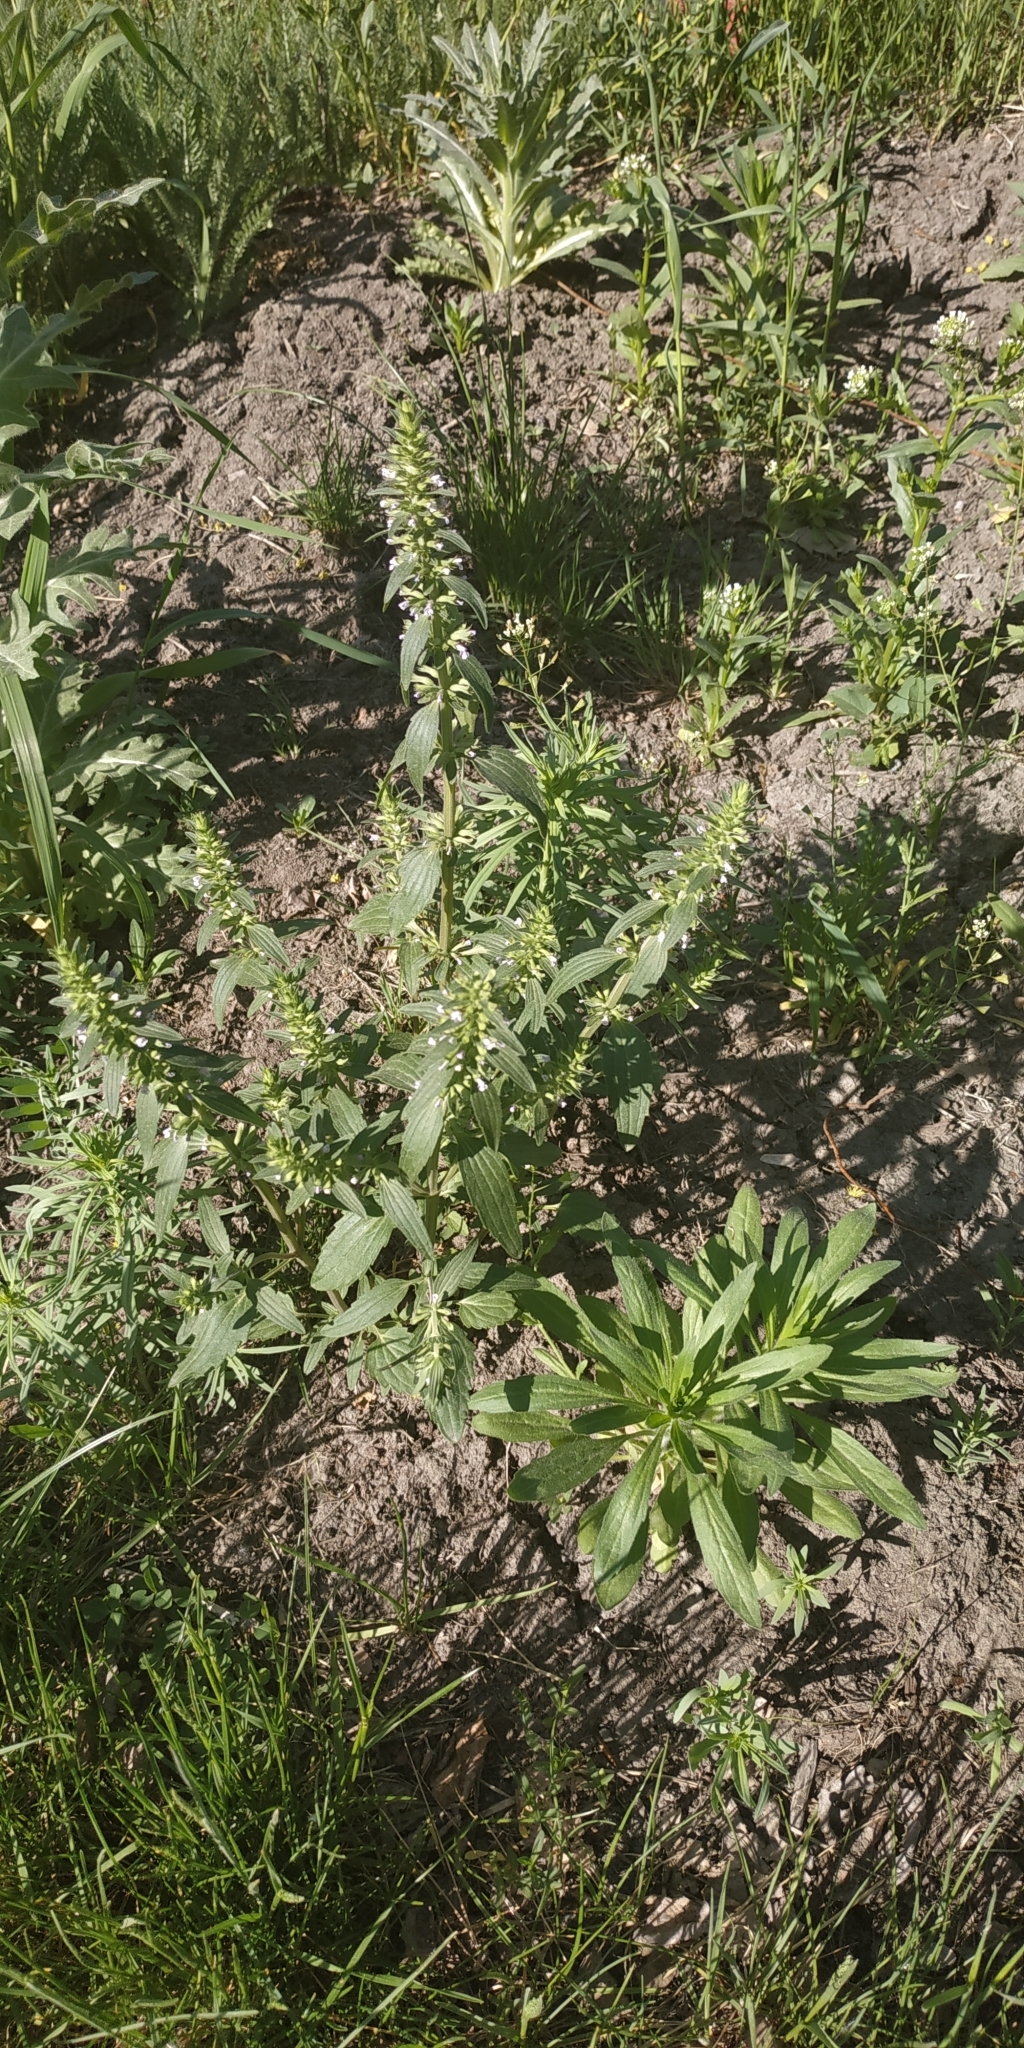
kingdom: Plantae
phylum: Tracheophyta
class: Magnoliopsida
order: Lamiales
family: Lamiaceae
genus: Dracocephalum
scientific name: Dracocephalum thymiflorum
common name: Thymeleaf dragonhead
